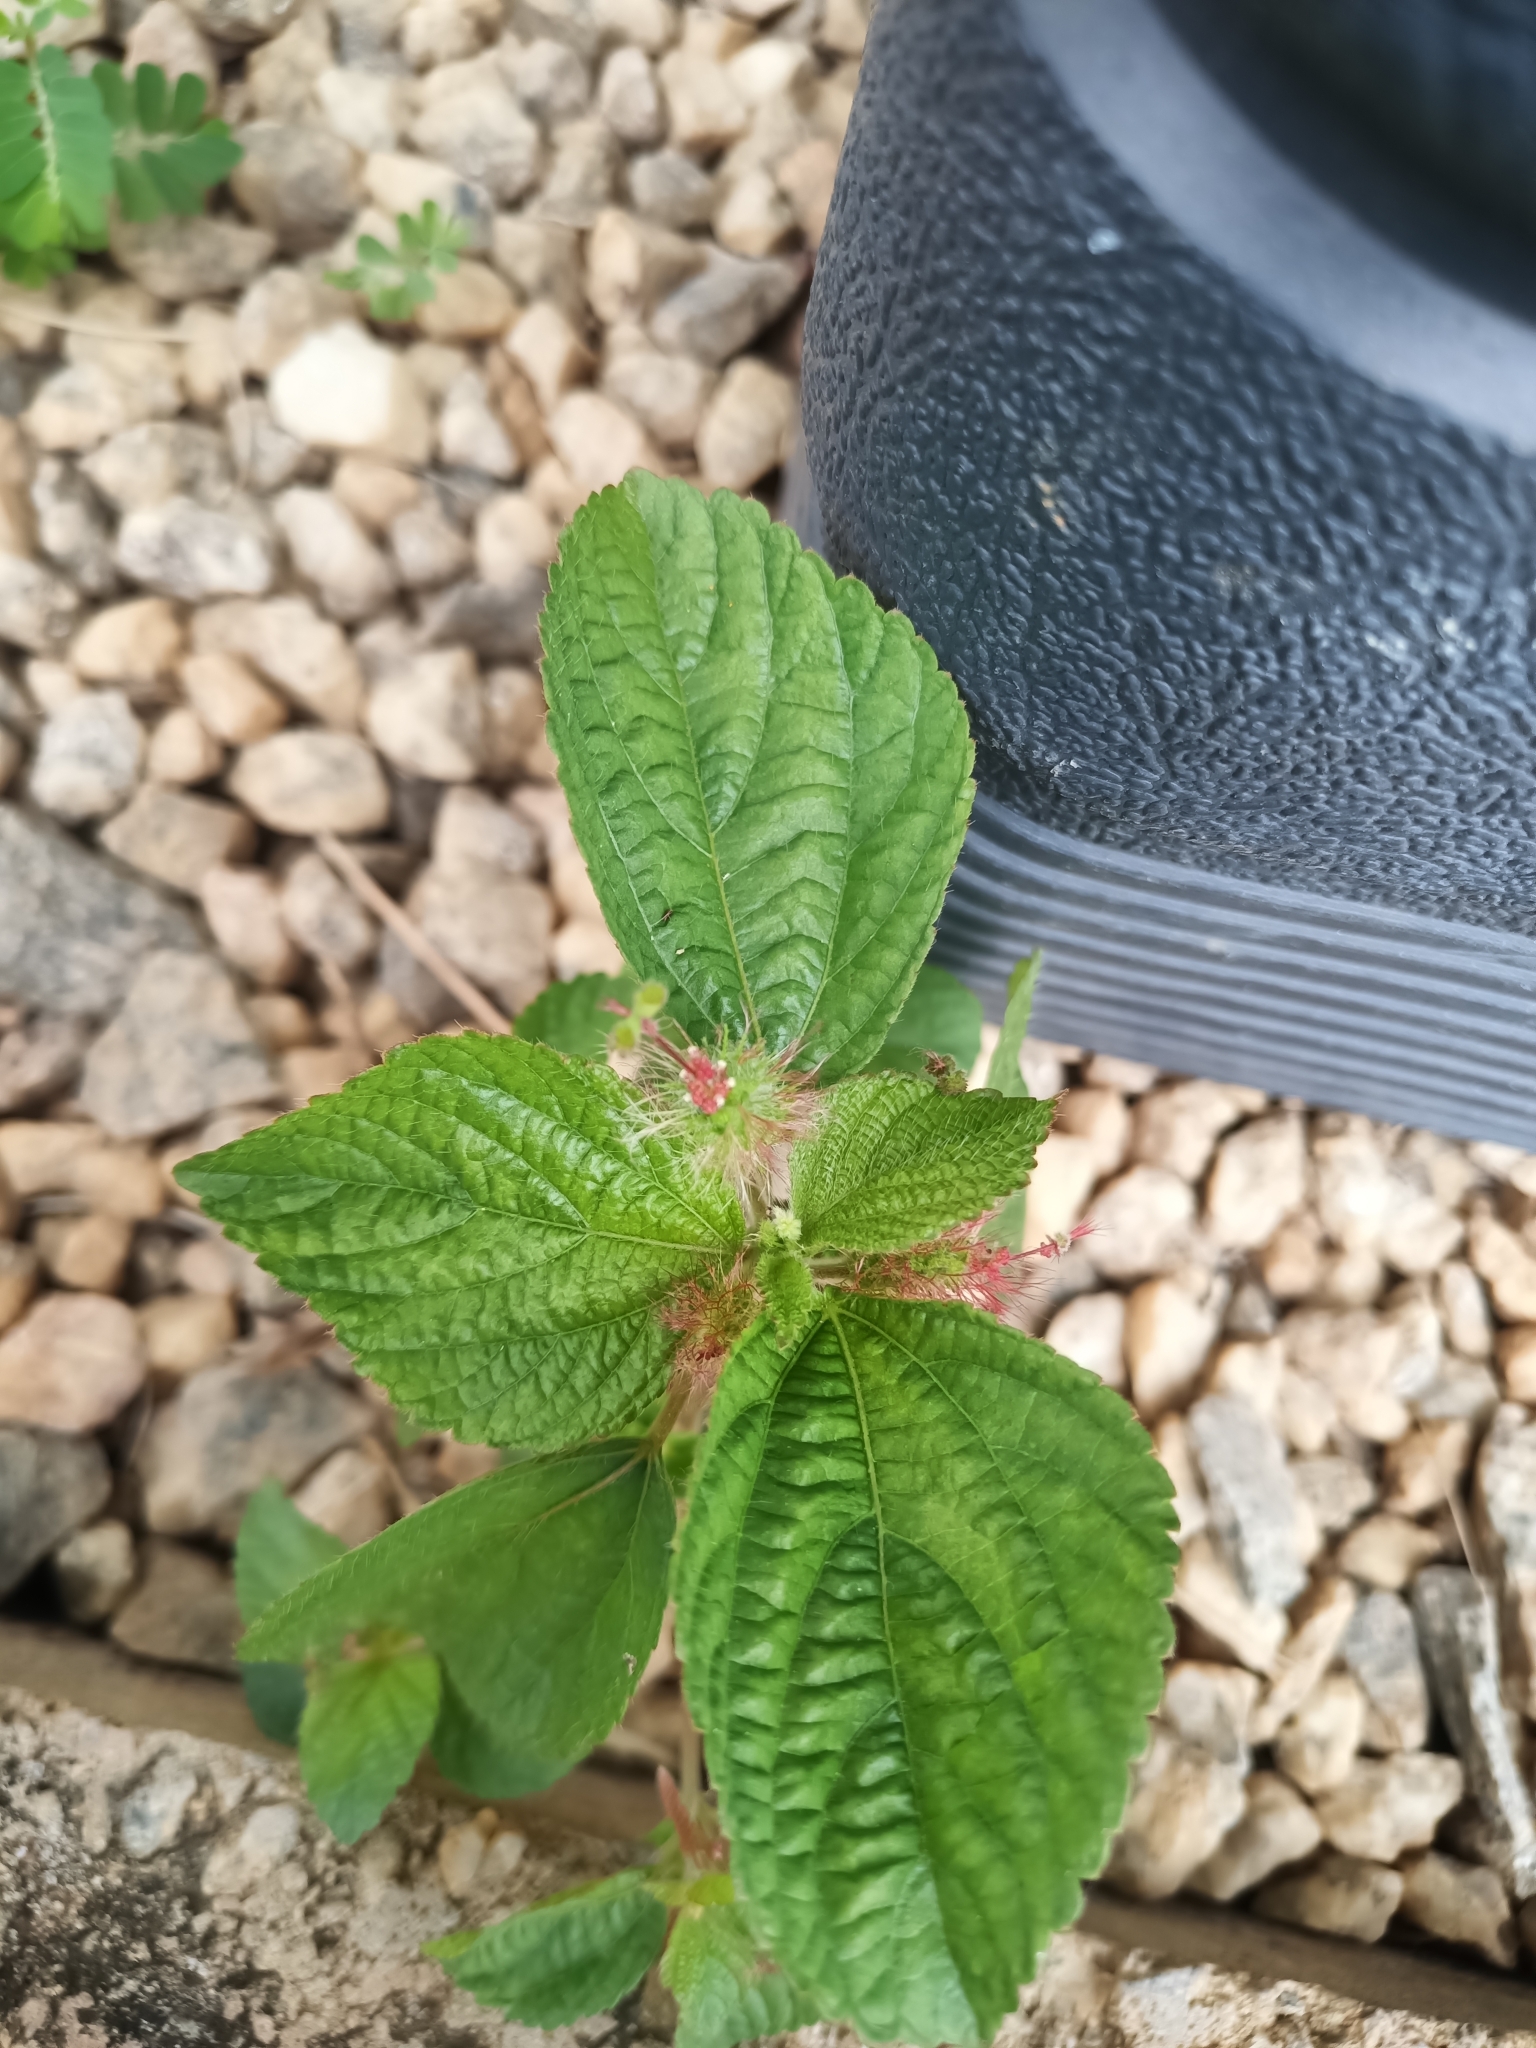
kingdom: Plantae
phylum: Tracheophyta
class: Magnoliopsida
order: Malpighiales
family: Euphorbiaceae
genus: Acalypha
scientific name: Acalypha alopecuroidea
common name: Foxtail copperleaf
